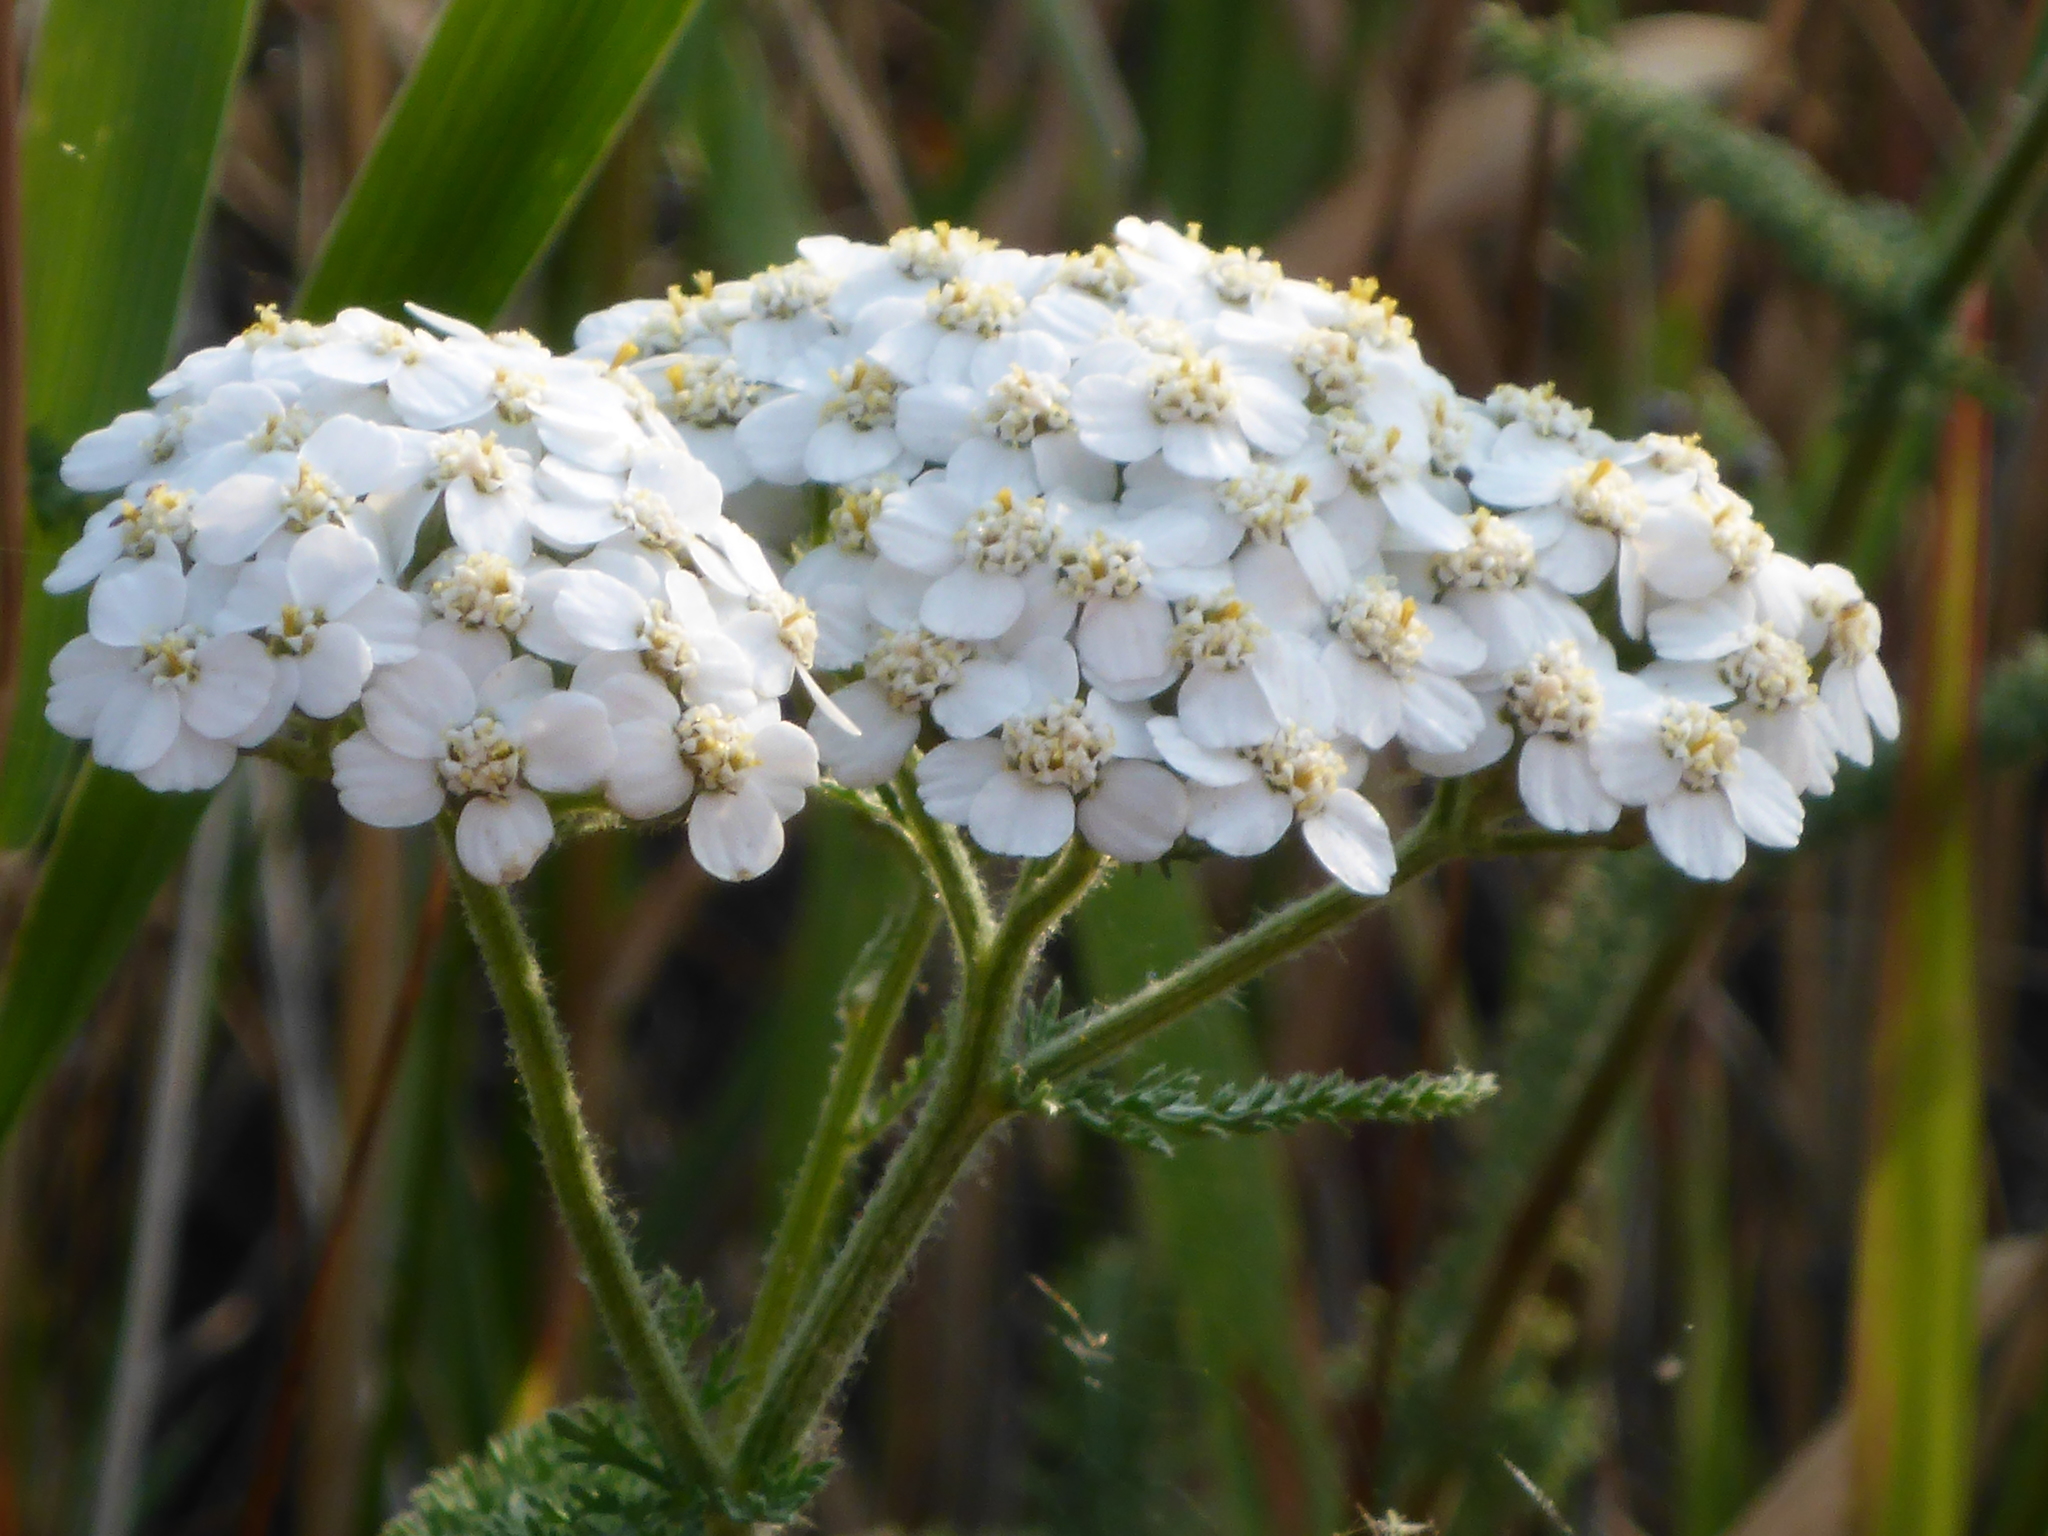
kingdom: Plantae
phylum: Tracheophyta
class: Magnoliopsida
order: Asterales
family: Asteraceae
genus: Achillea
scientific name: Achillea millefolium
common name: Yarrow
